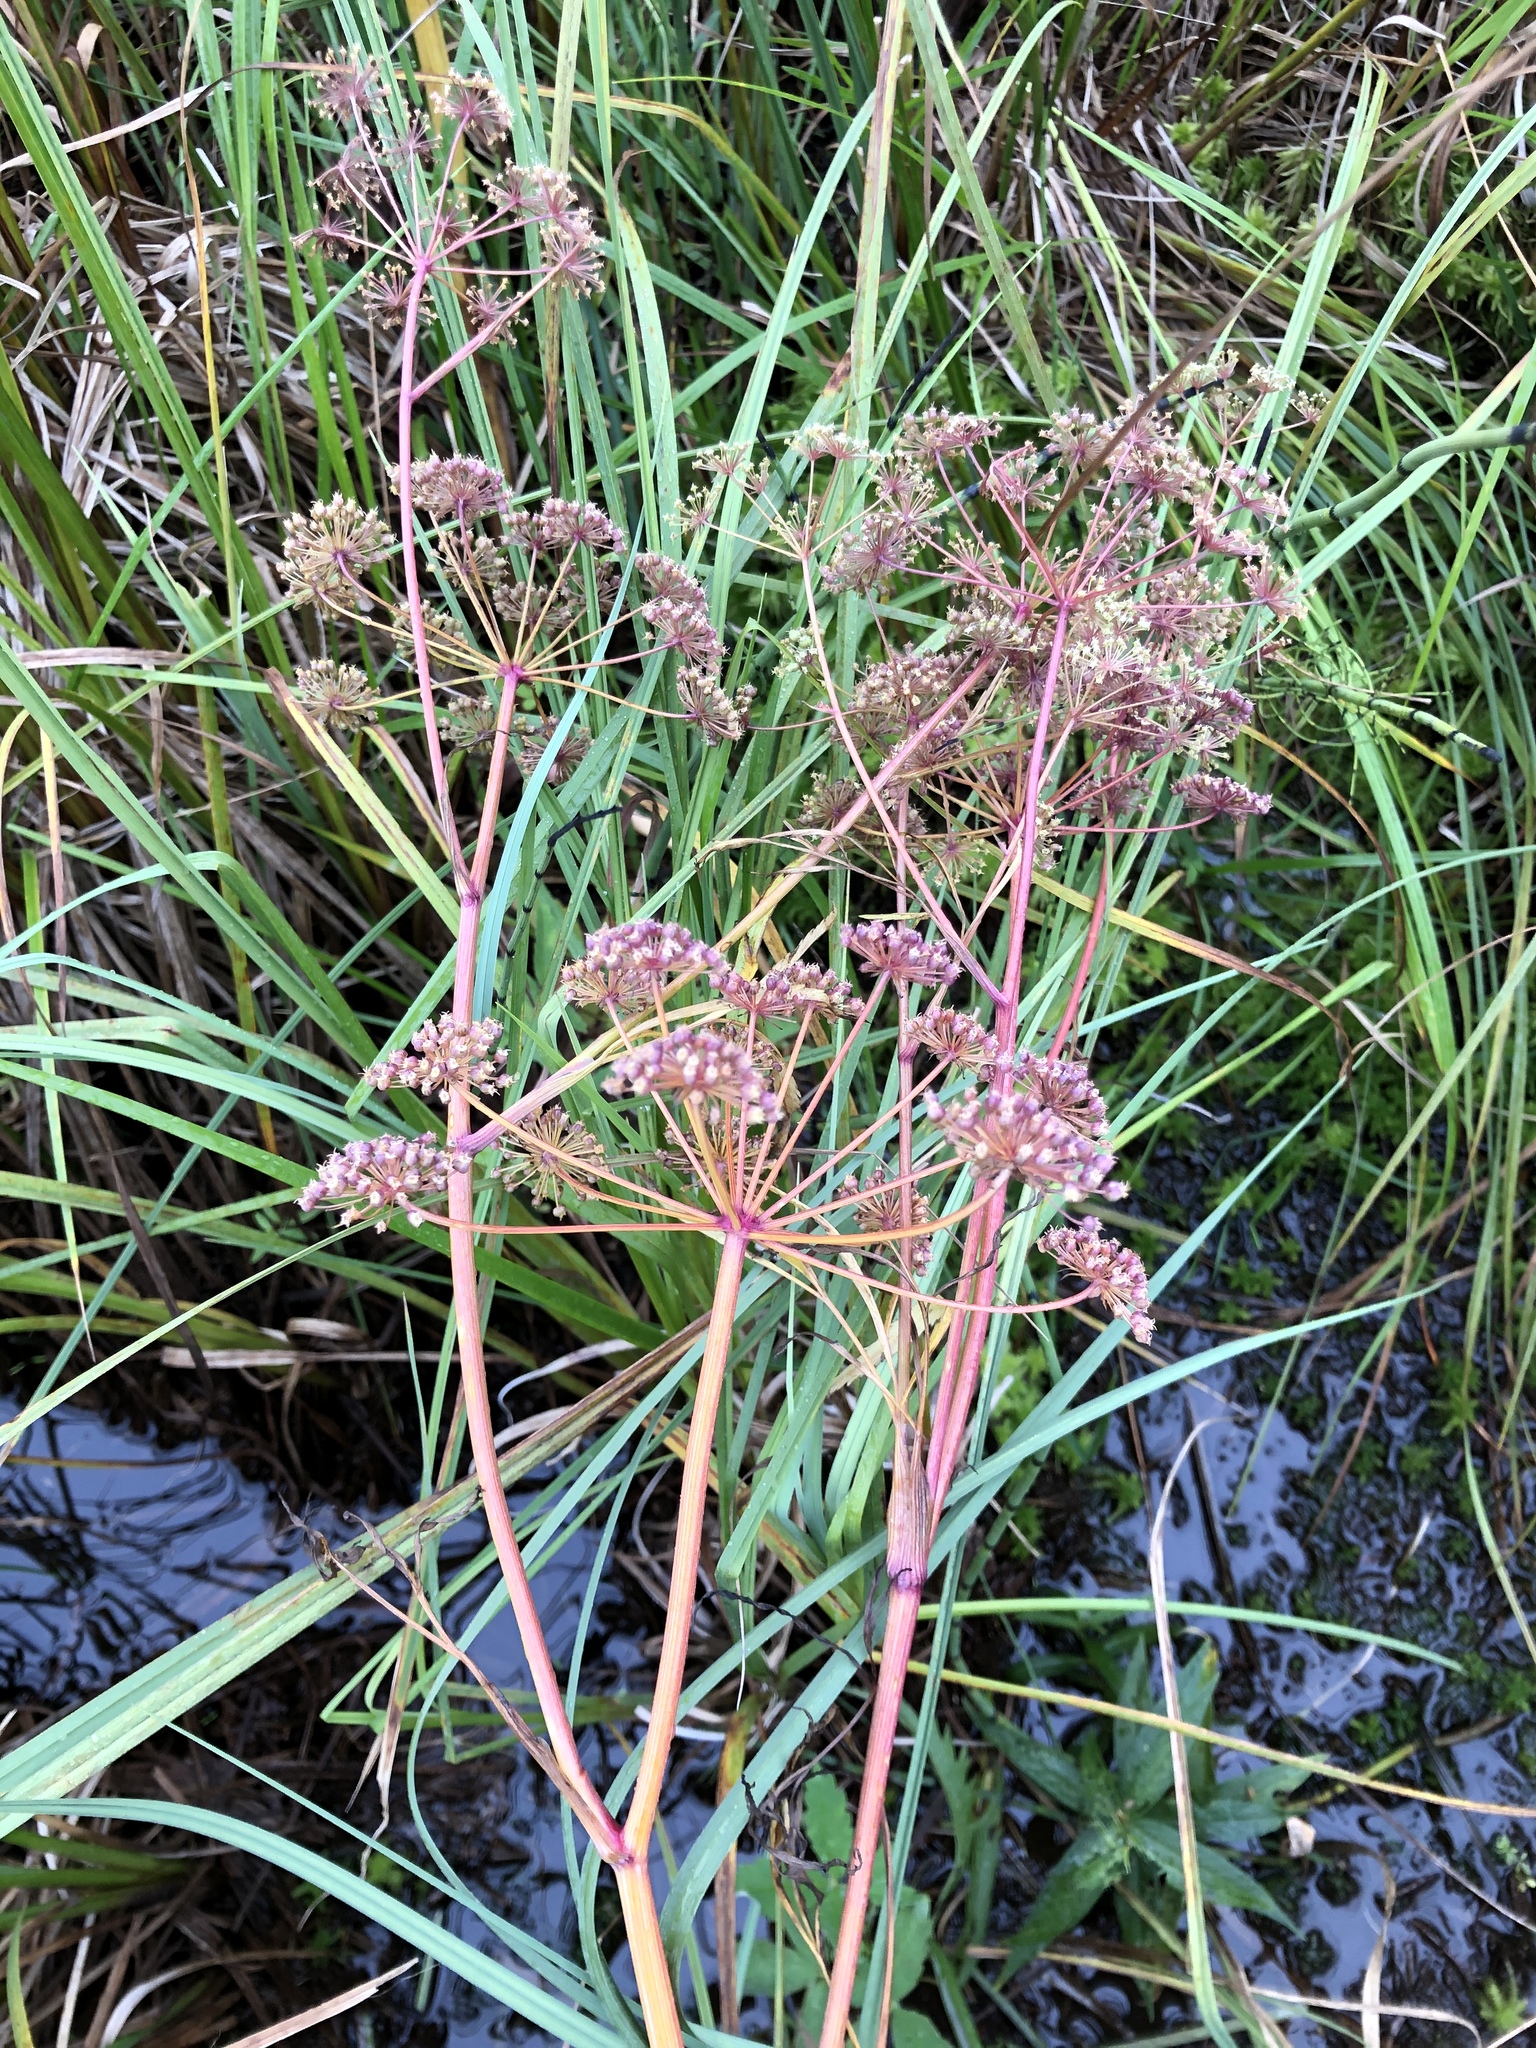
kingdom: Plantae
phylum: Tracheophyta
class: Magnoliopsida
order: Apiales
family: Apiaceae
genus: Cicuta
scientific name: Cicuta virosa
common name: Cowbane
